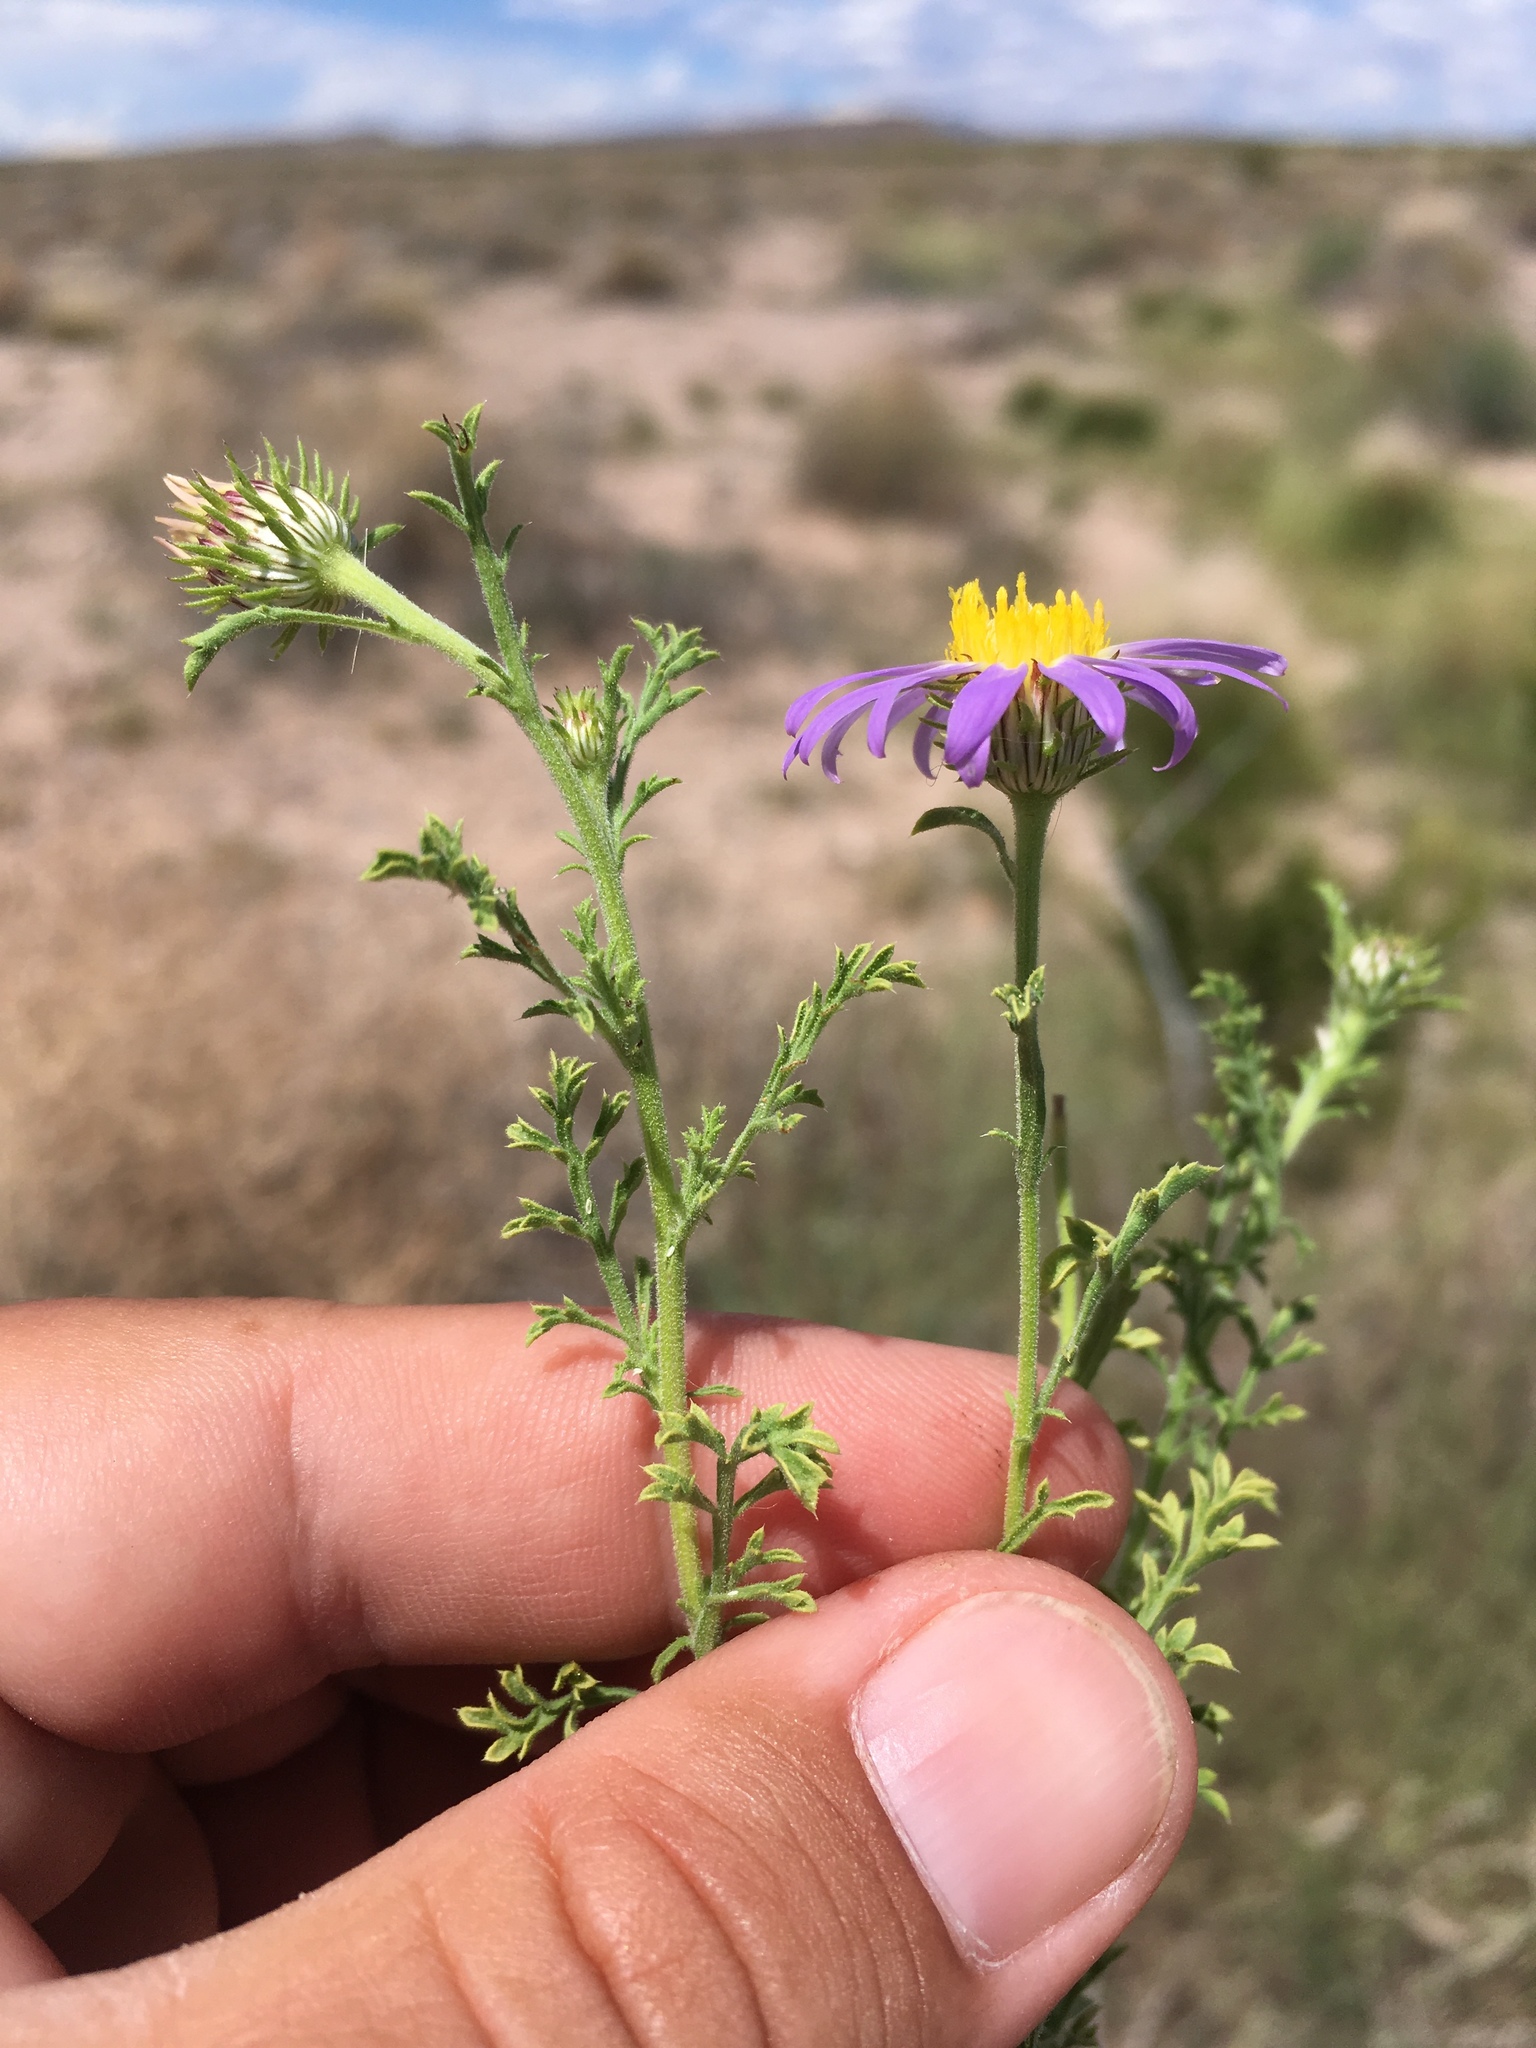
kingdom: Plantae
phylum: Tracheophyta
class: Magnoliopsida
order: Asterales
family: Asteraceae
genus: Machaeranthera
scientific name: Machaeranthera tanacetifolia
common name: Tansy-aster
